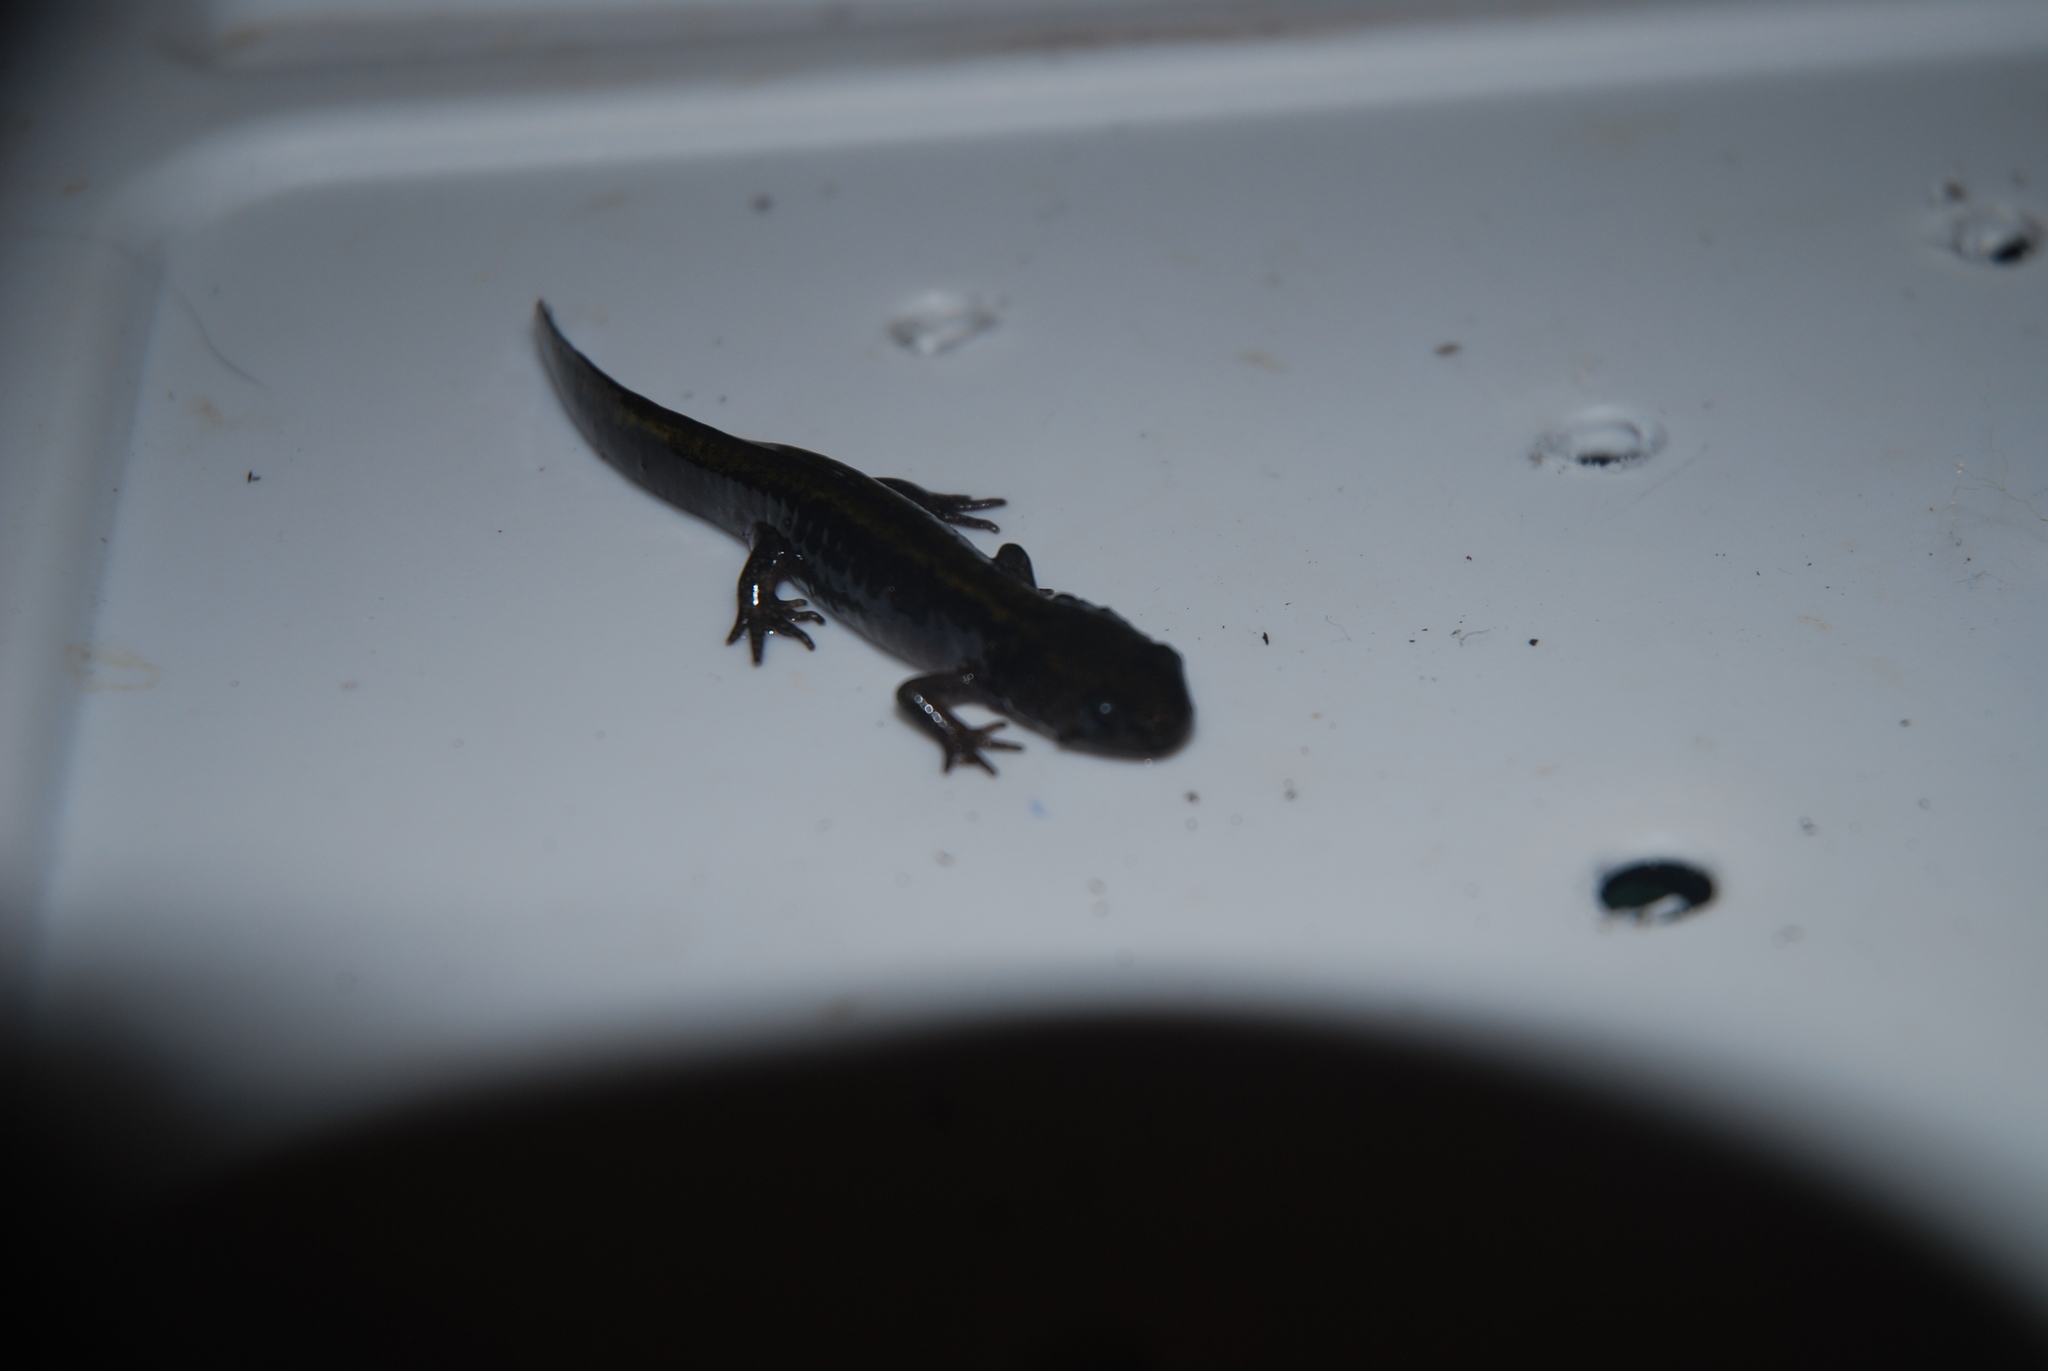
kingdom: Animalia
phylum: Chordata
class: Amphibia
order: Caudata
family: Ambystomatidae
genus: Ambystoma
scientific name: Ambystoma macrodactylum
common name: Long-toed salamander
